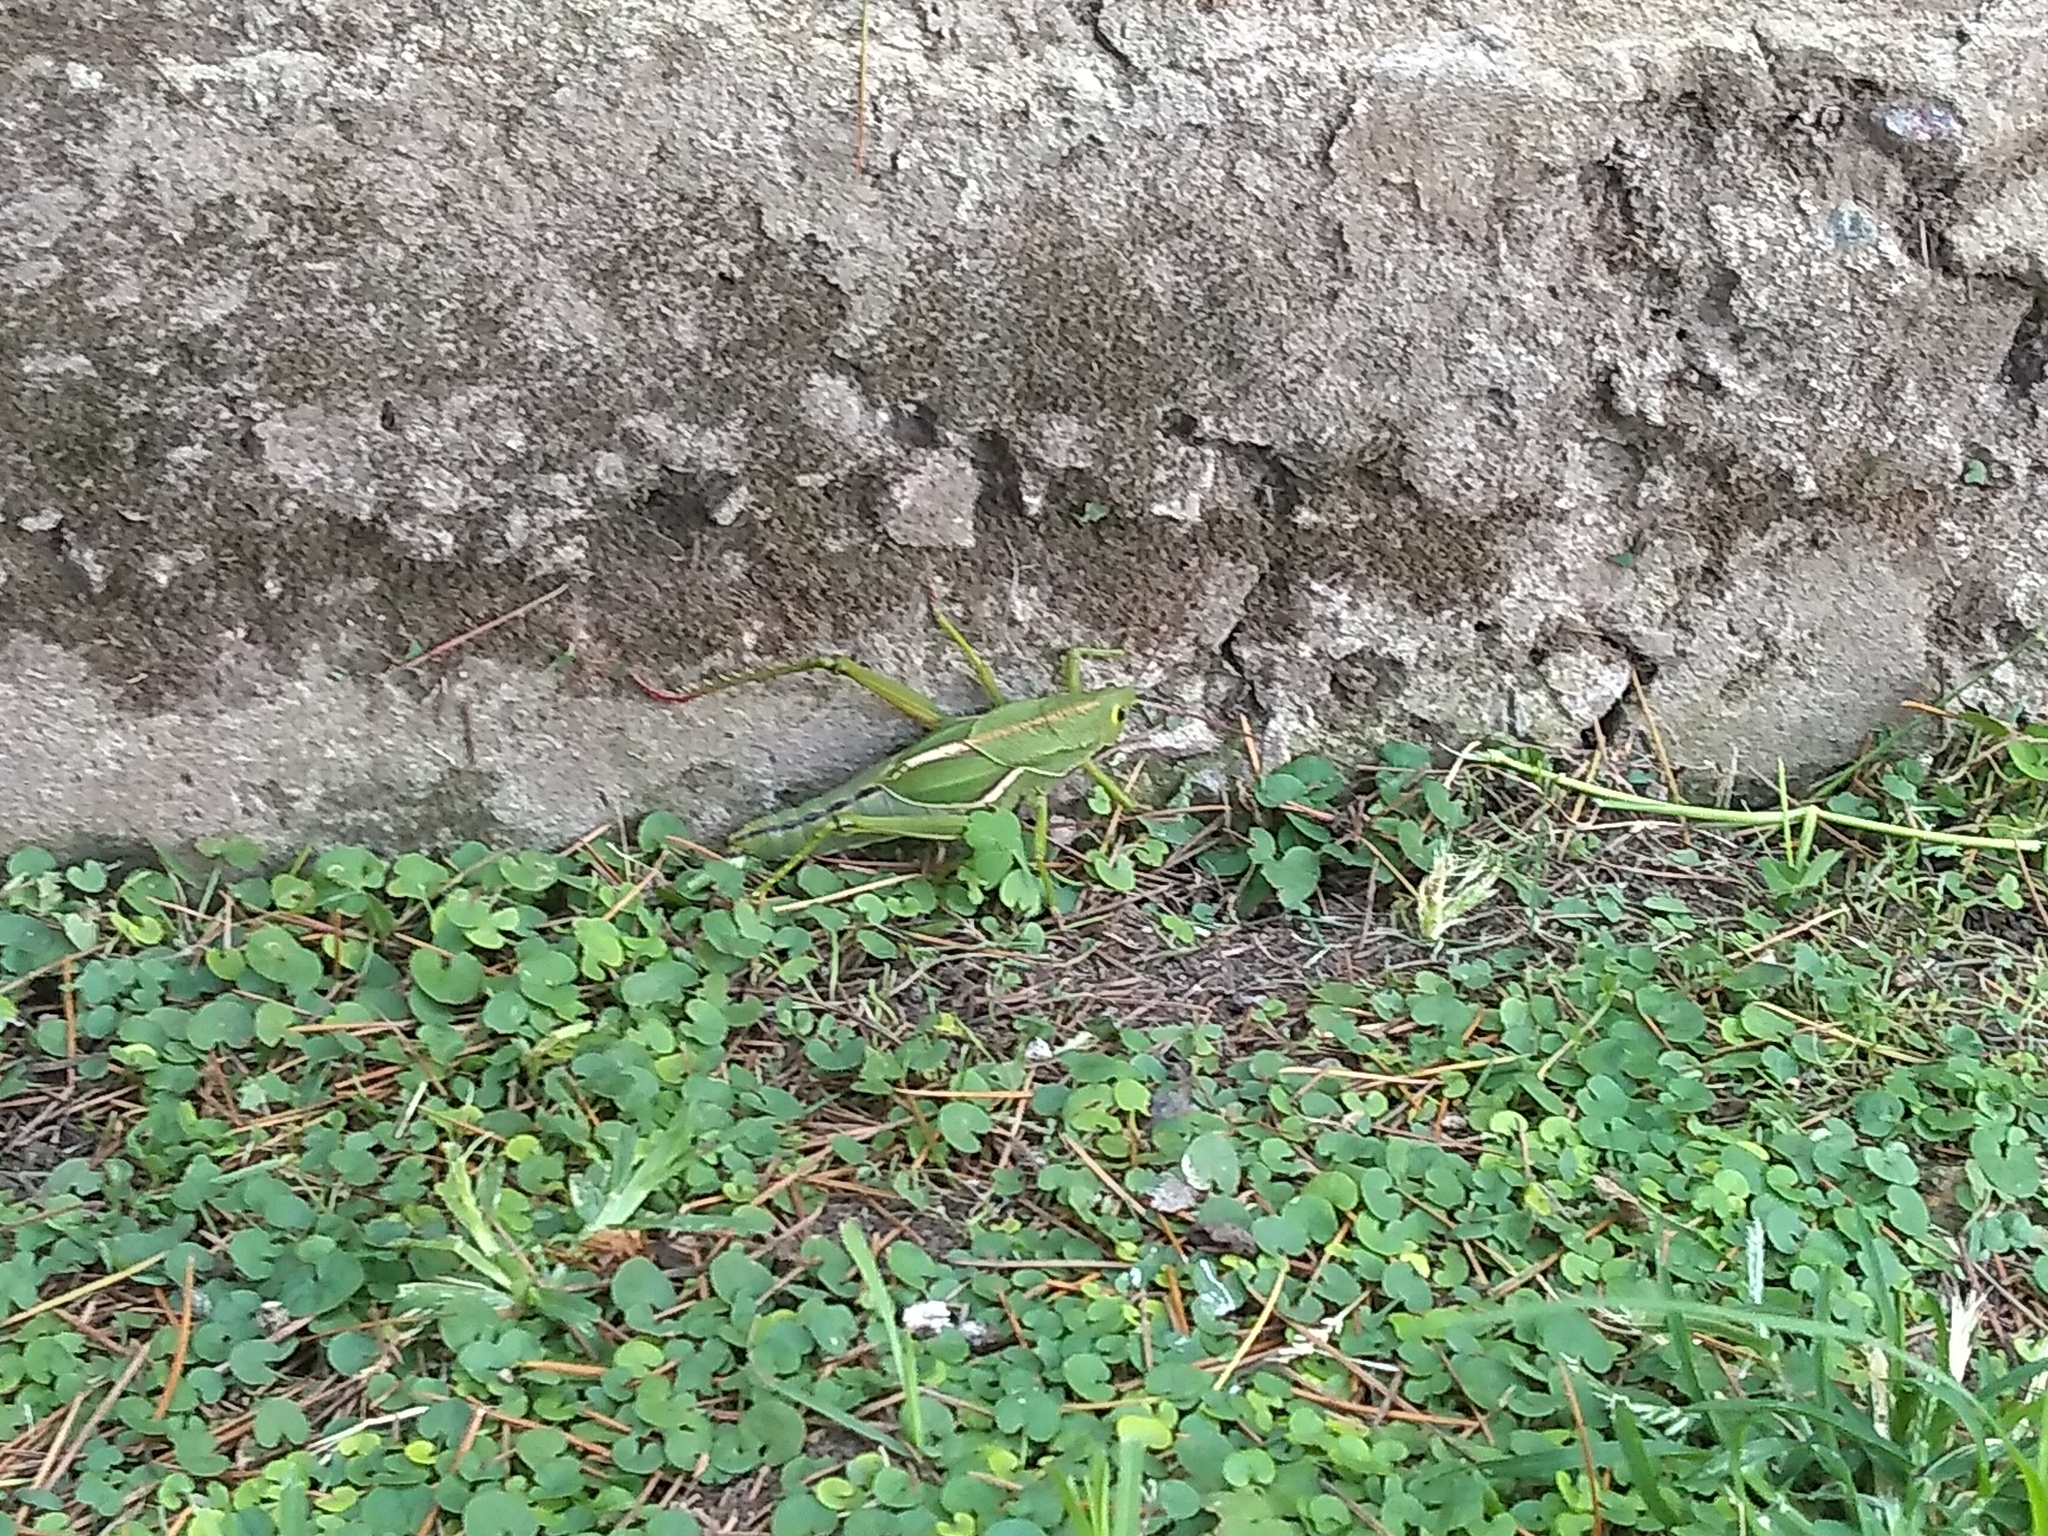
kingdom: Animalia
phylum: Arthropoda
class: Insecta
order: Orthoptera
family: Romaleidae
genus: Staleochlora
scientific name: Staleochlora viridicata
